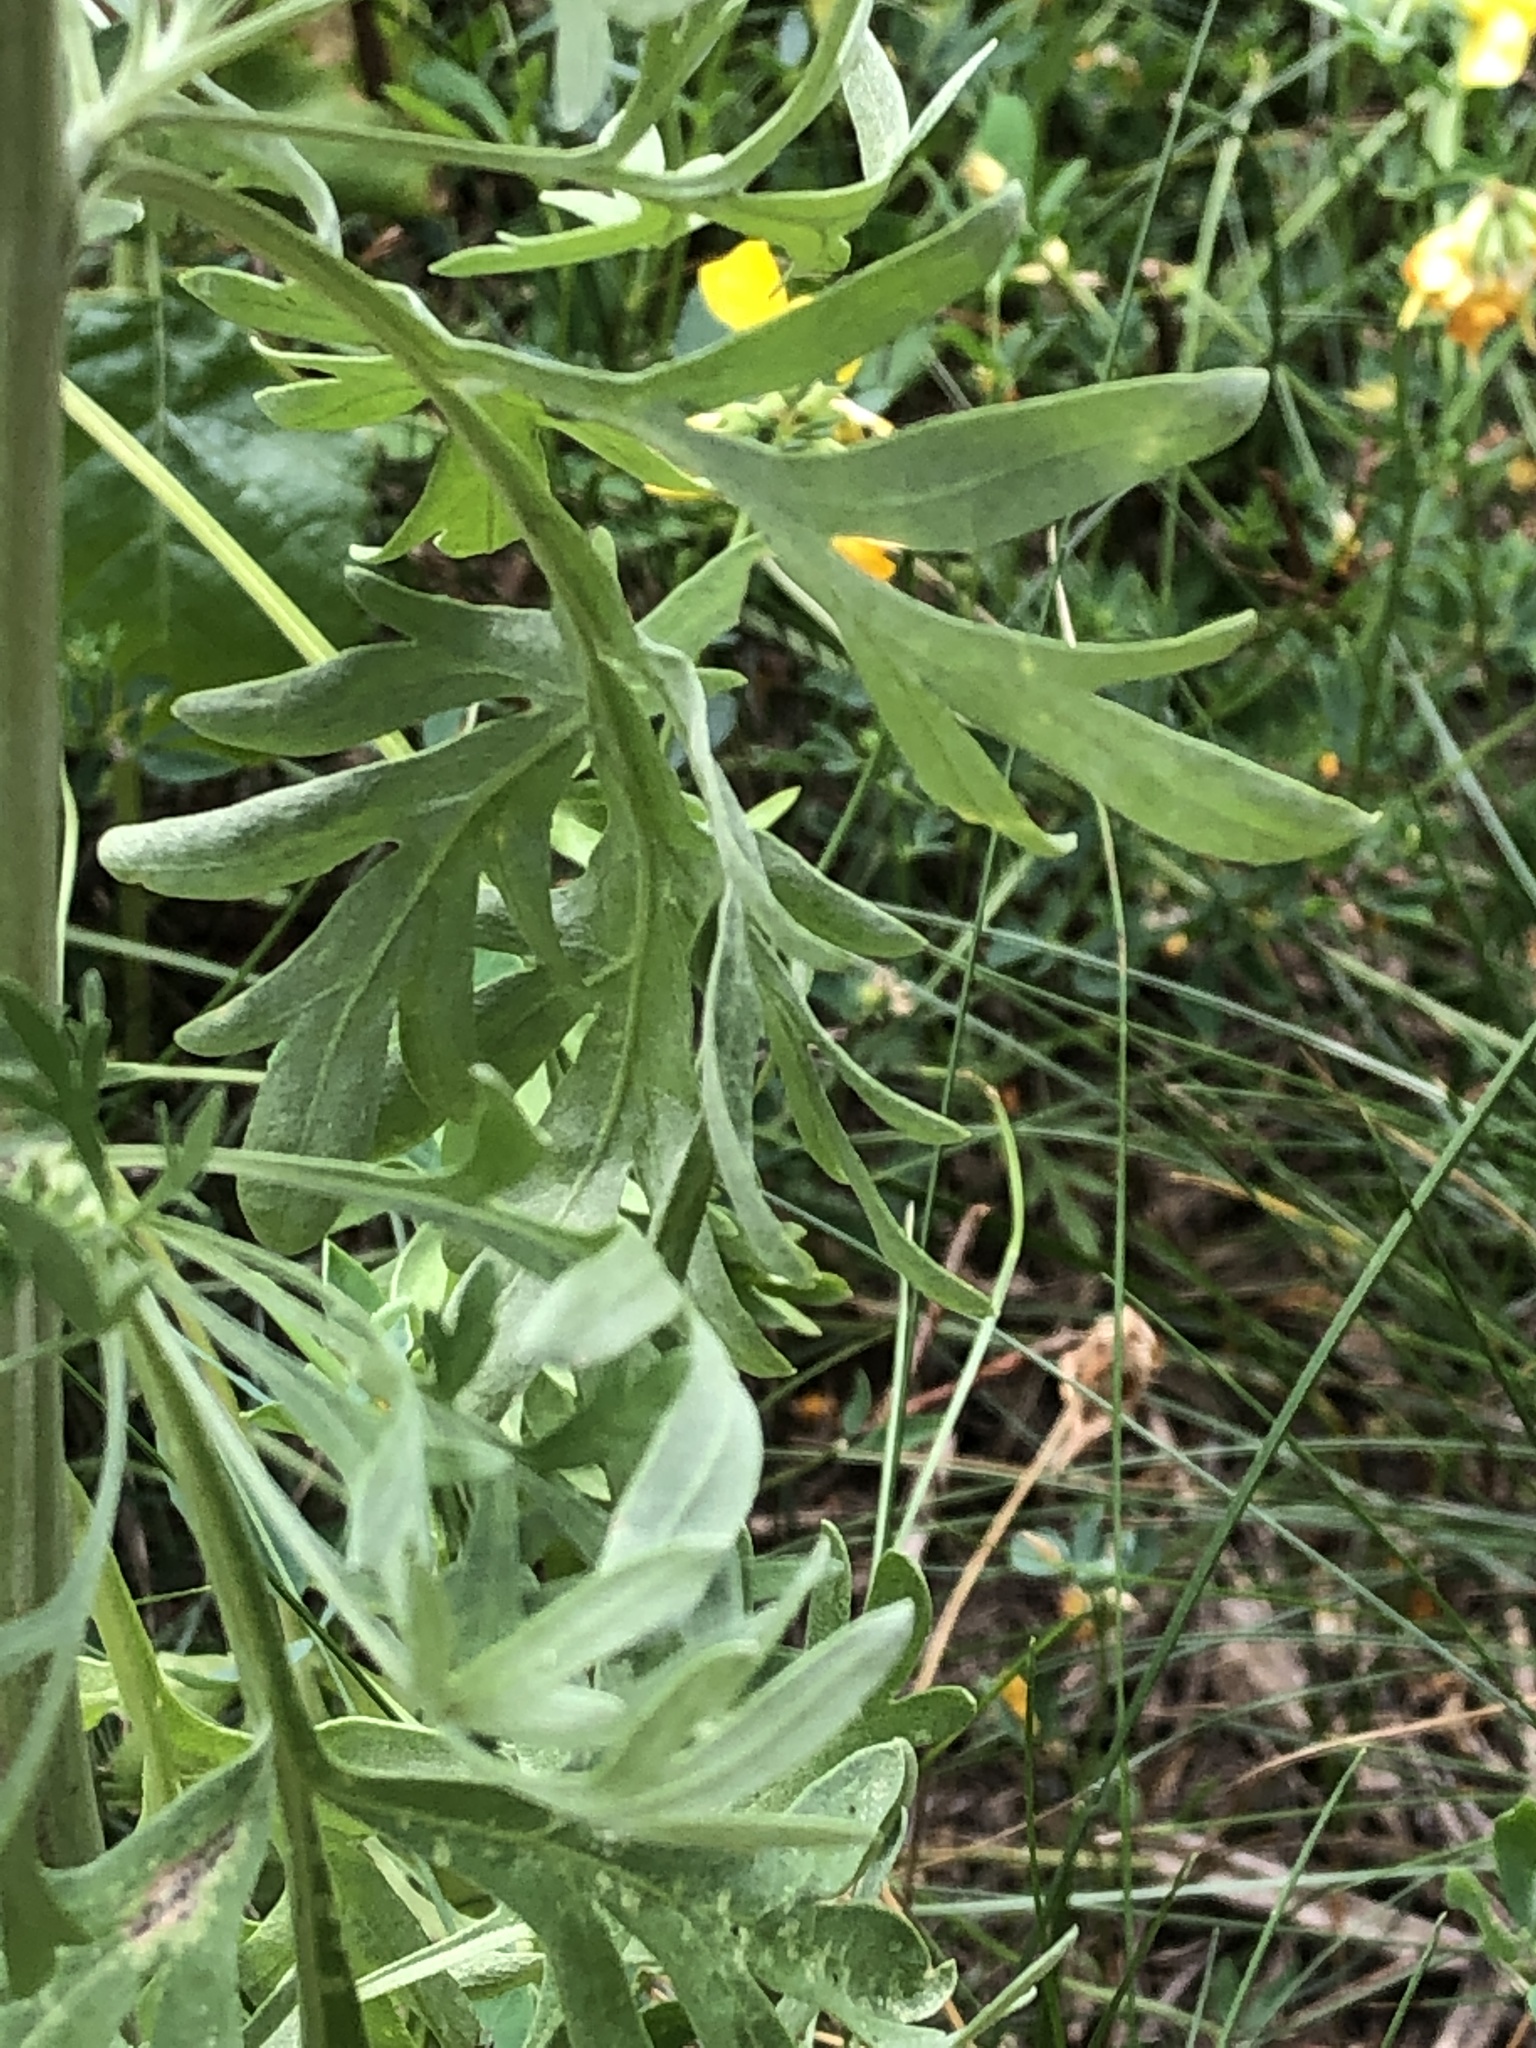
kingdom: Plantae
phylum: Tracheophyta
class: Magnoliopsida
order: Asterales
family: Asteraceae
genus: Artemisia
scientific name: Artemisia absinthium
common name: Wormwood
